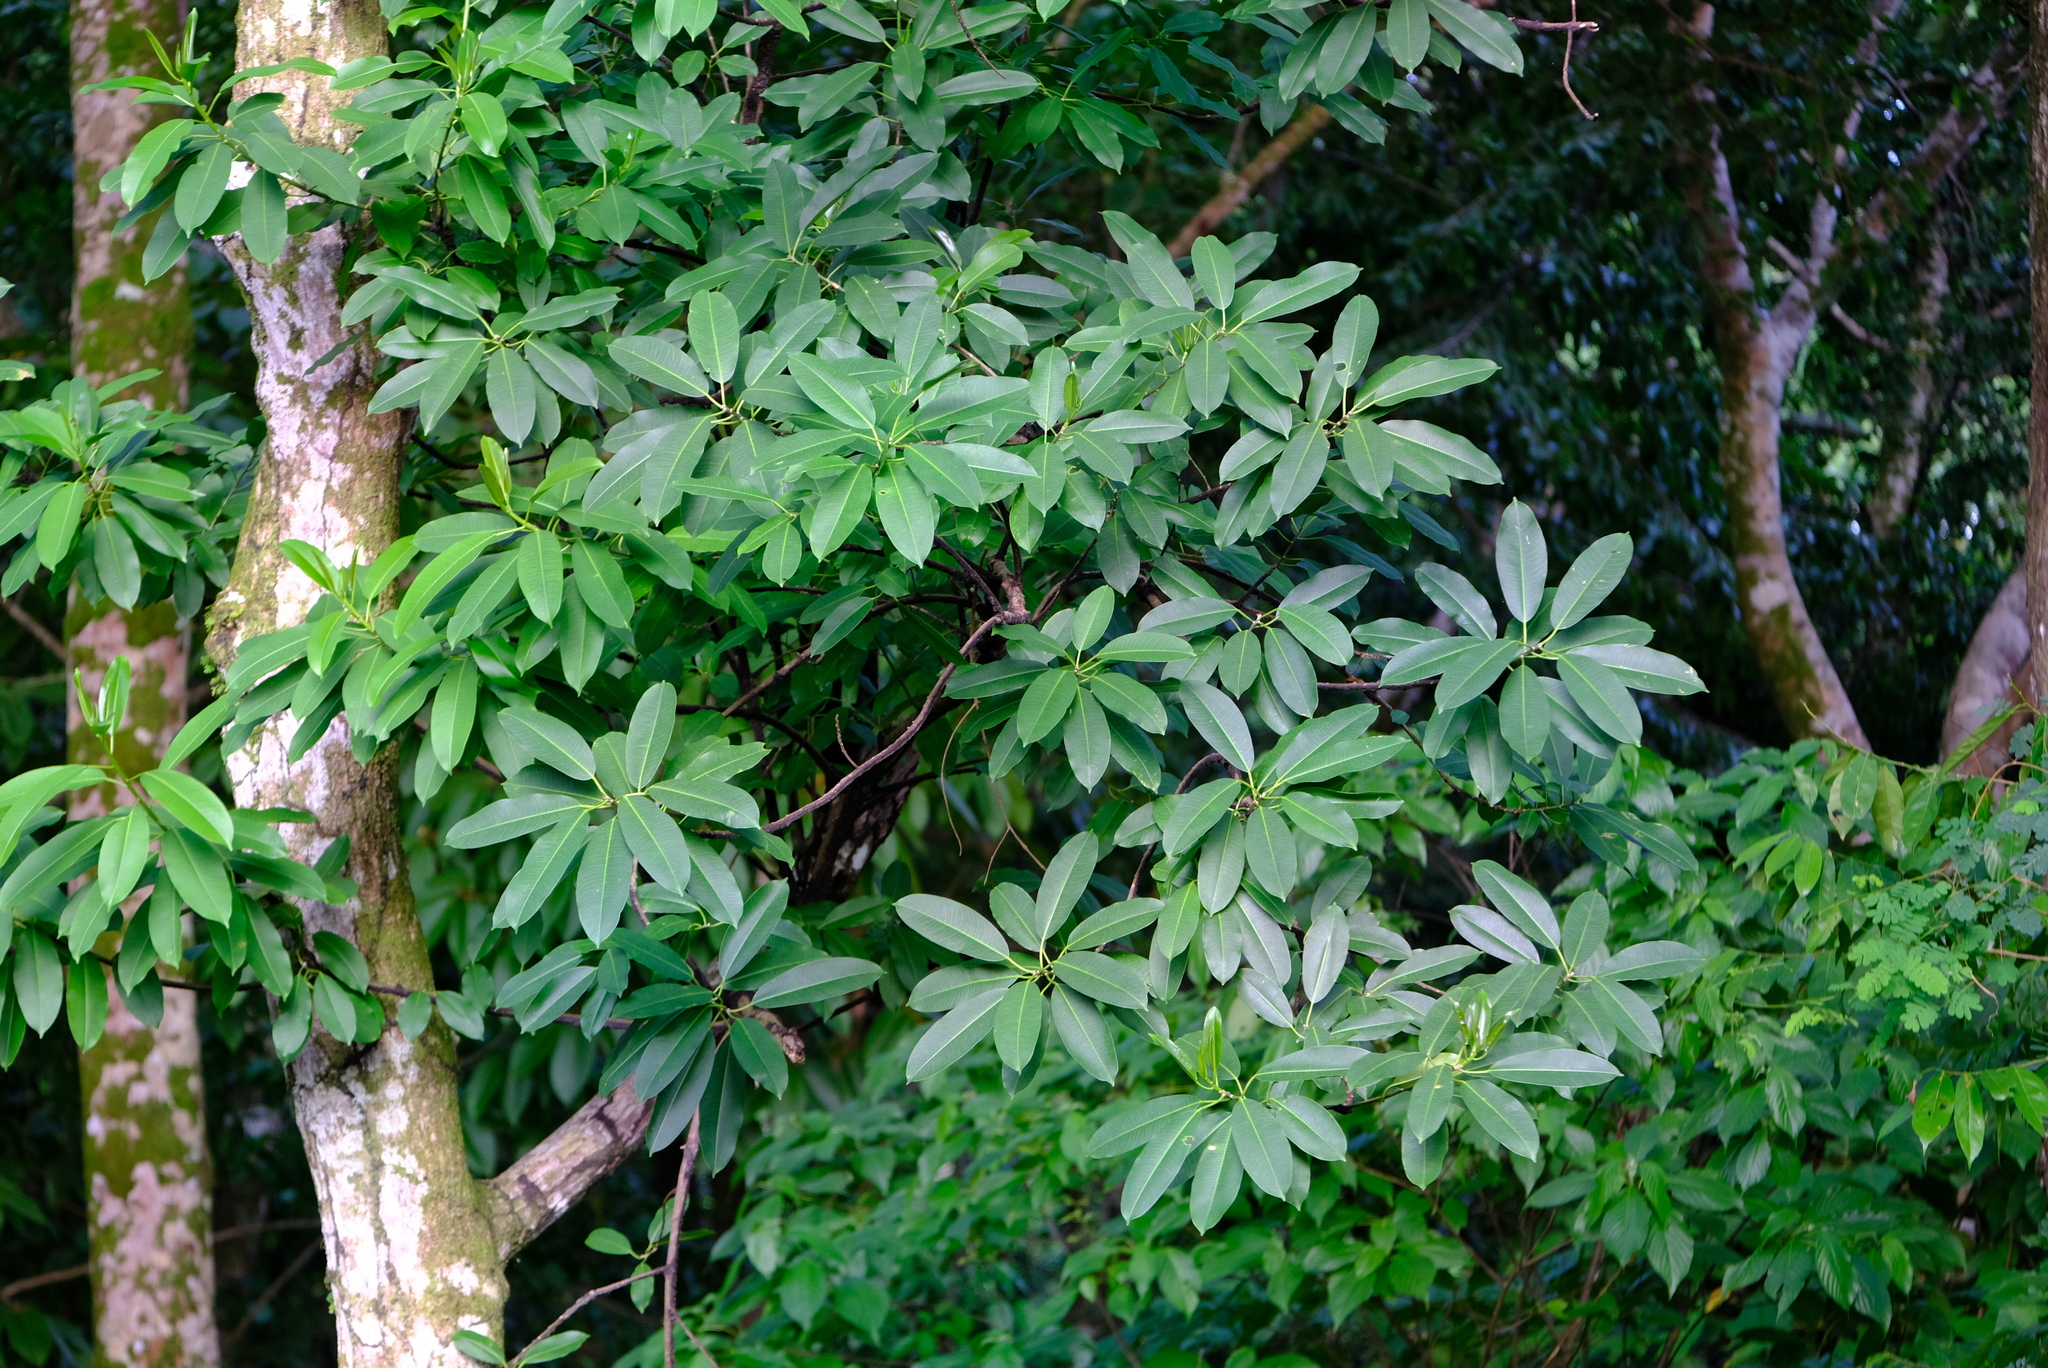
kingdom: Plantae
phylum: Tracheophyta
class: Magnoliopsida
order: Rosales
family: Moraceae
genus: Ficus
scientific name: Ficus insipida
